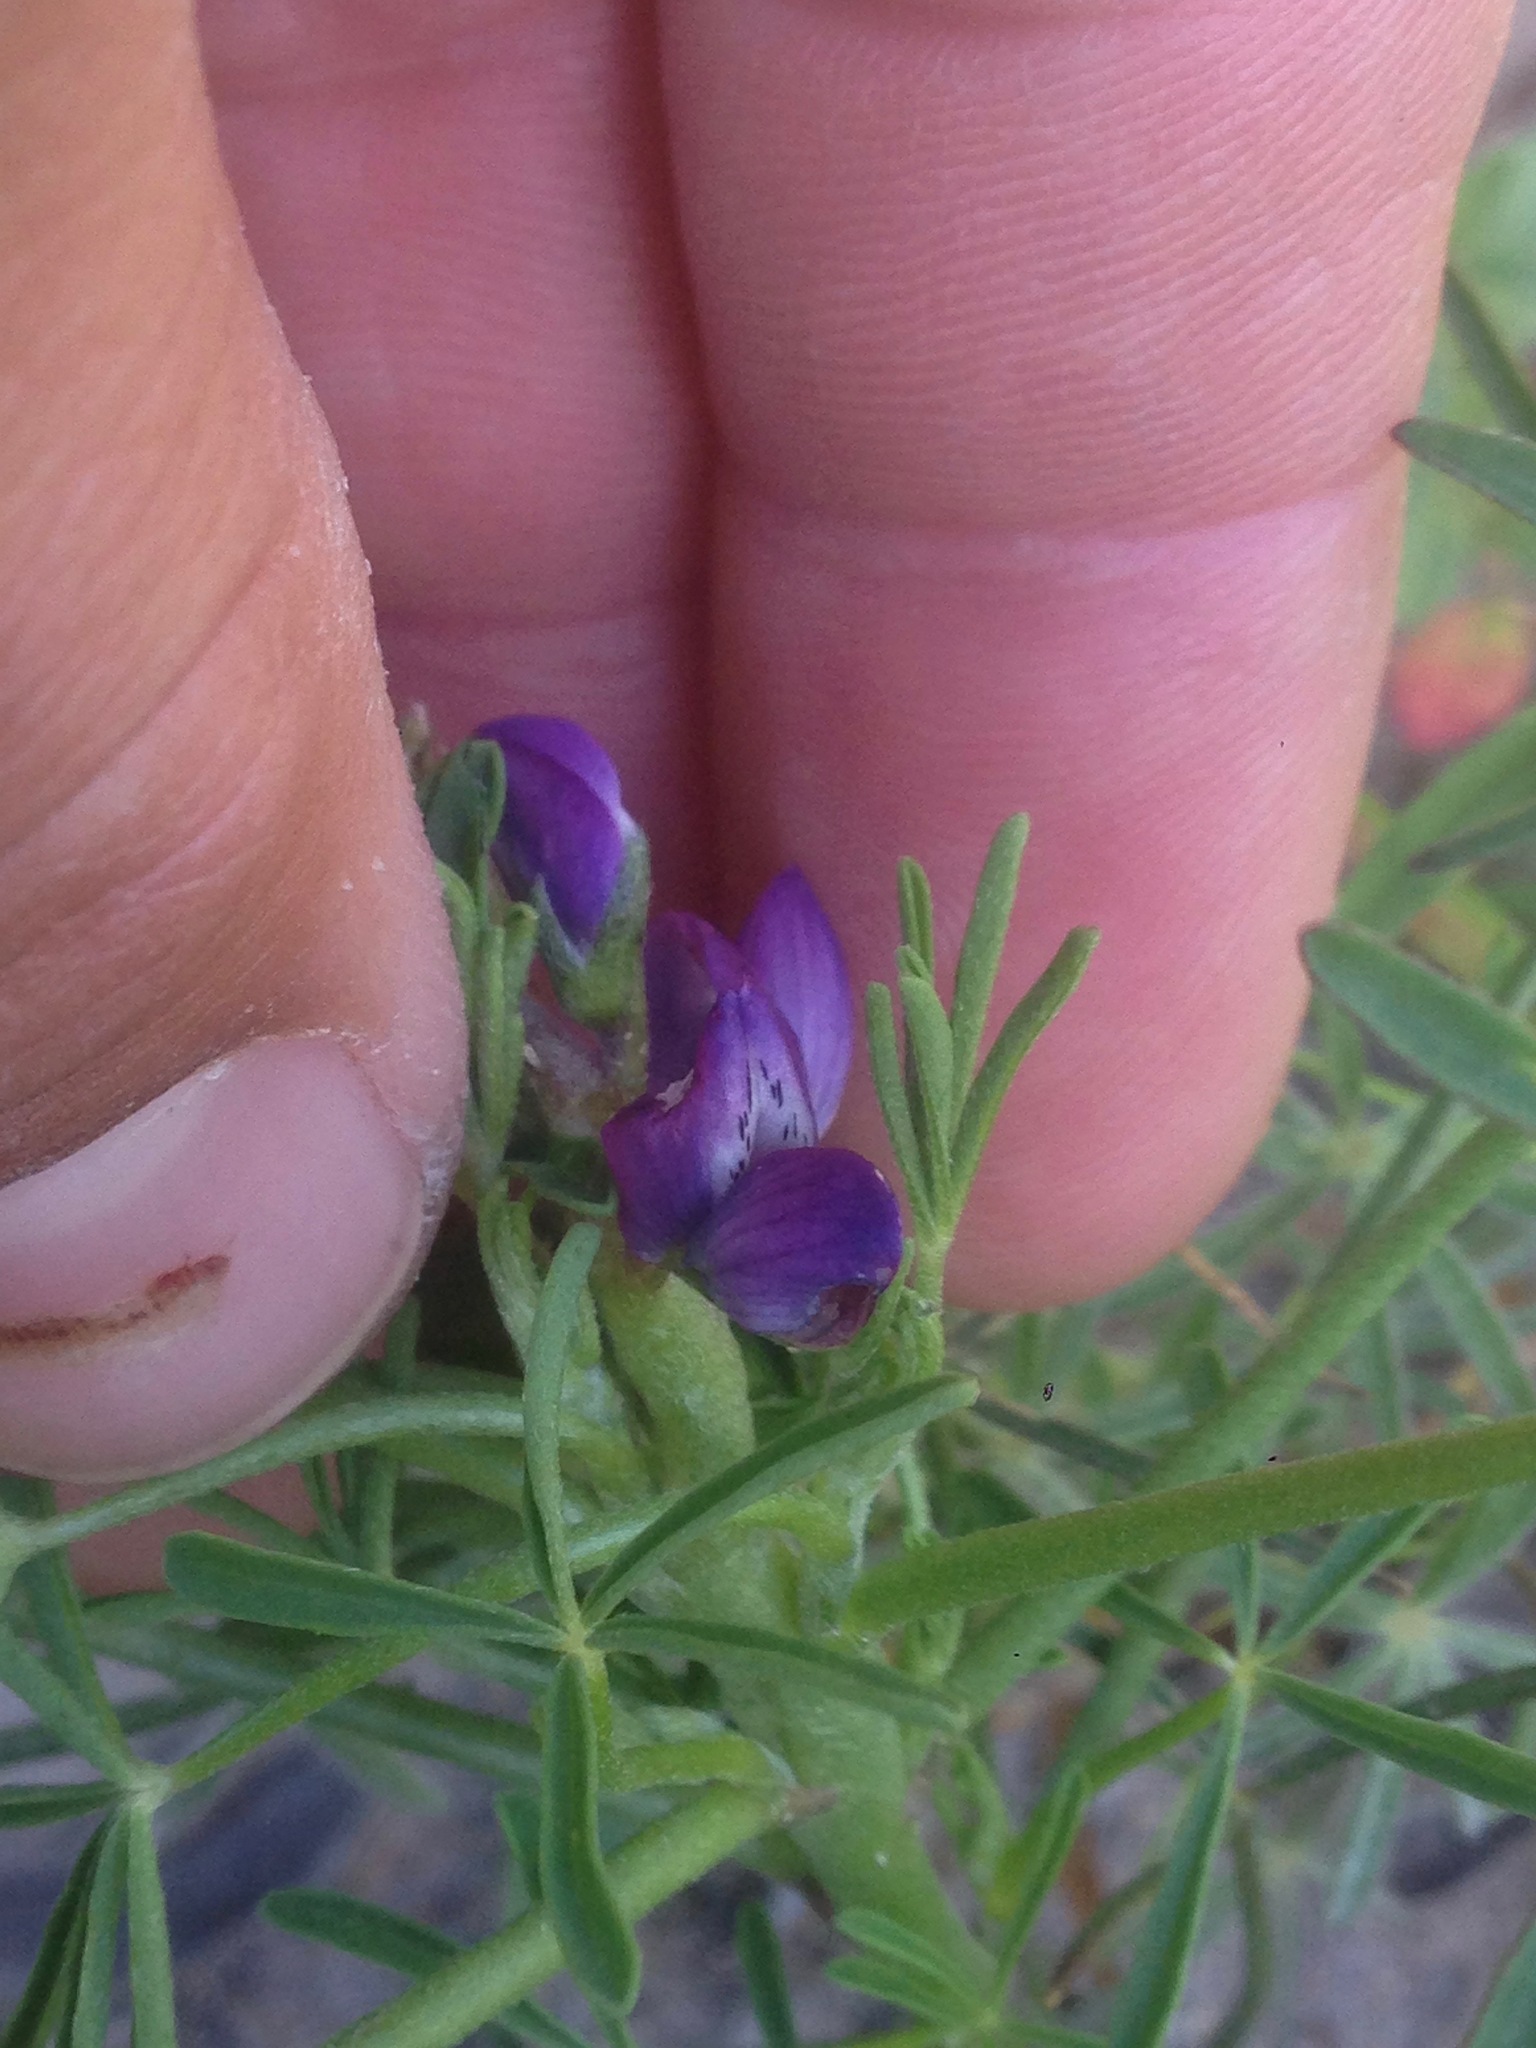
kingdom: Plantae
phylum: Tracheophyta
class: Magnoliopsida
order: Fabales
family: Fabaceae
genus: Lupinus
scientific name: Lupinus truncatus
